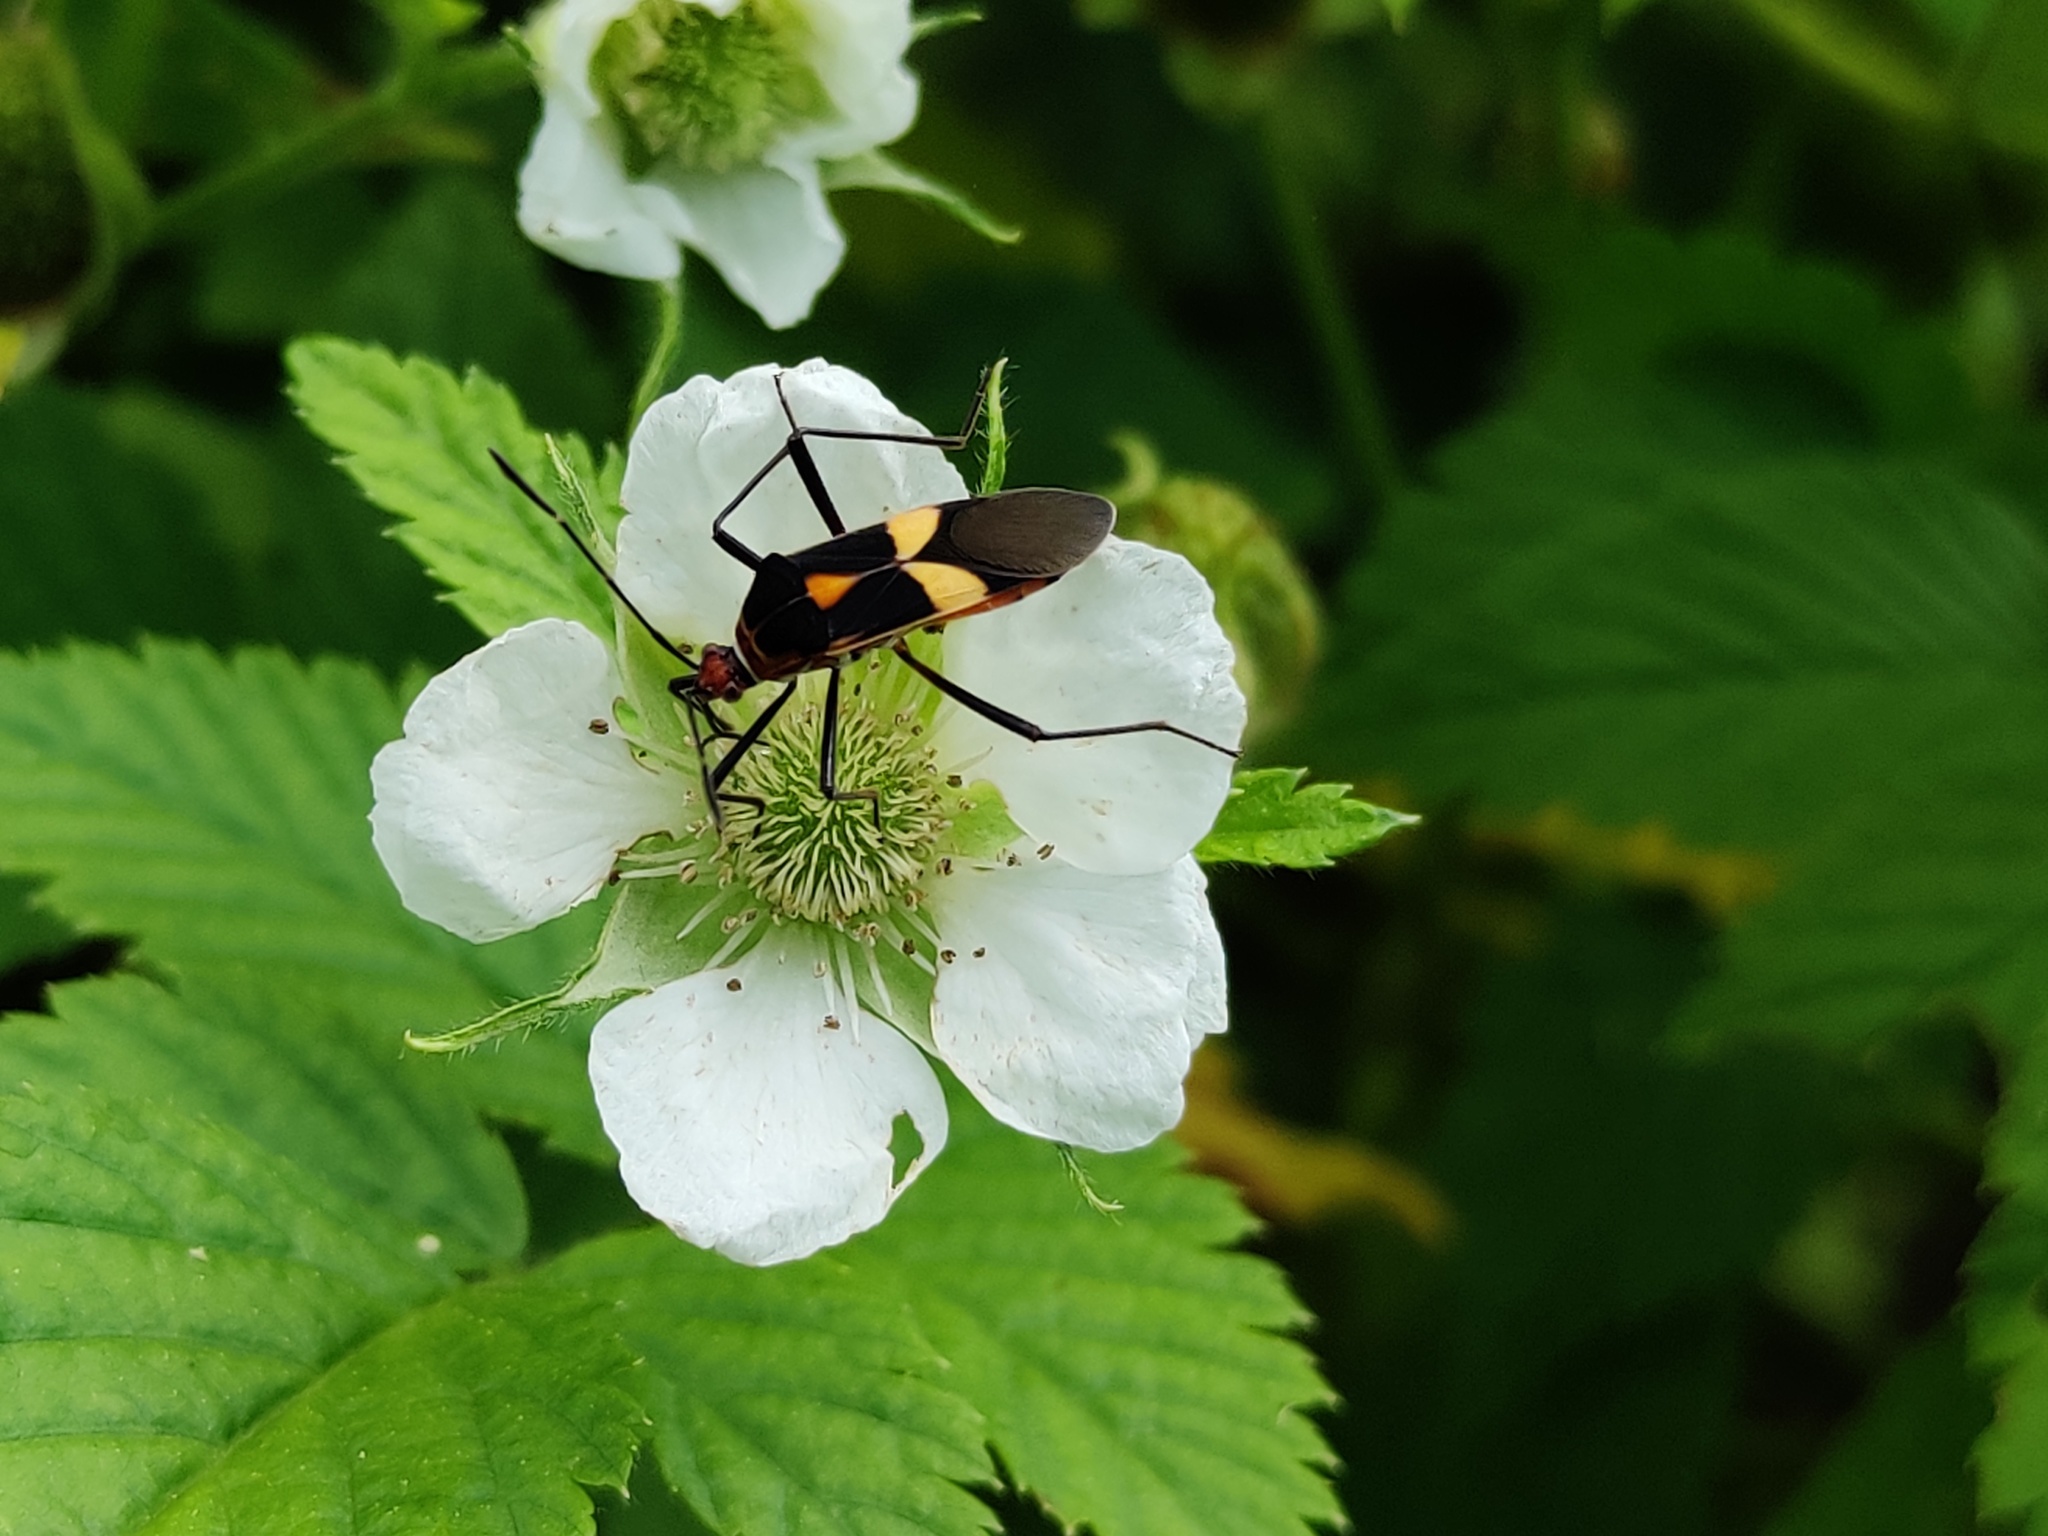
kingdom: Animalia
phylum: Arthropoda
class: Insecta
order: Hemiptera
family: Coreidae
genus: Hypselonotus
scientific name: Hypselonotus interruptus
